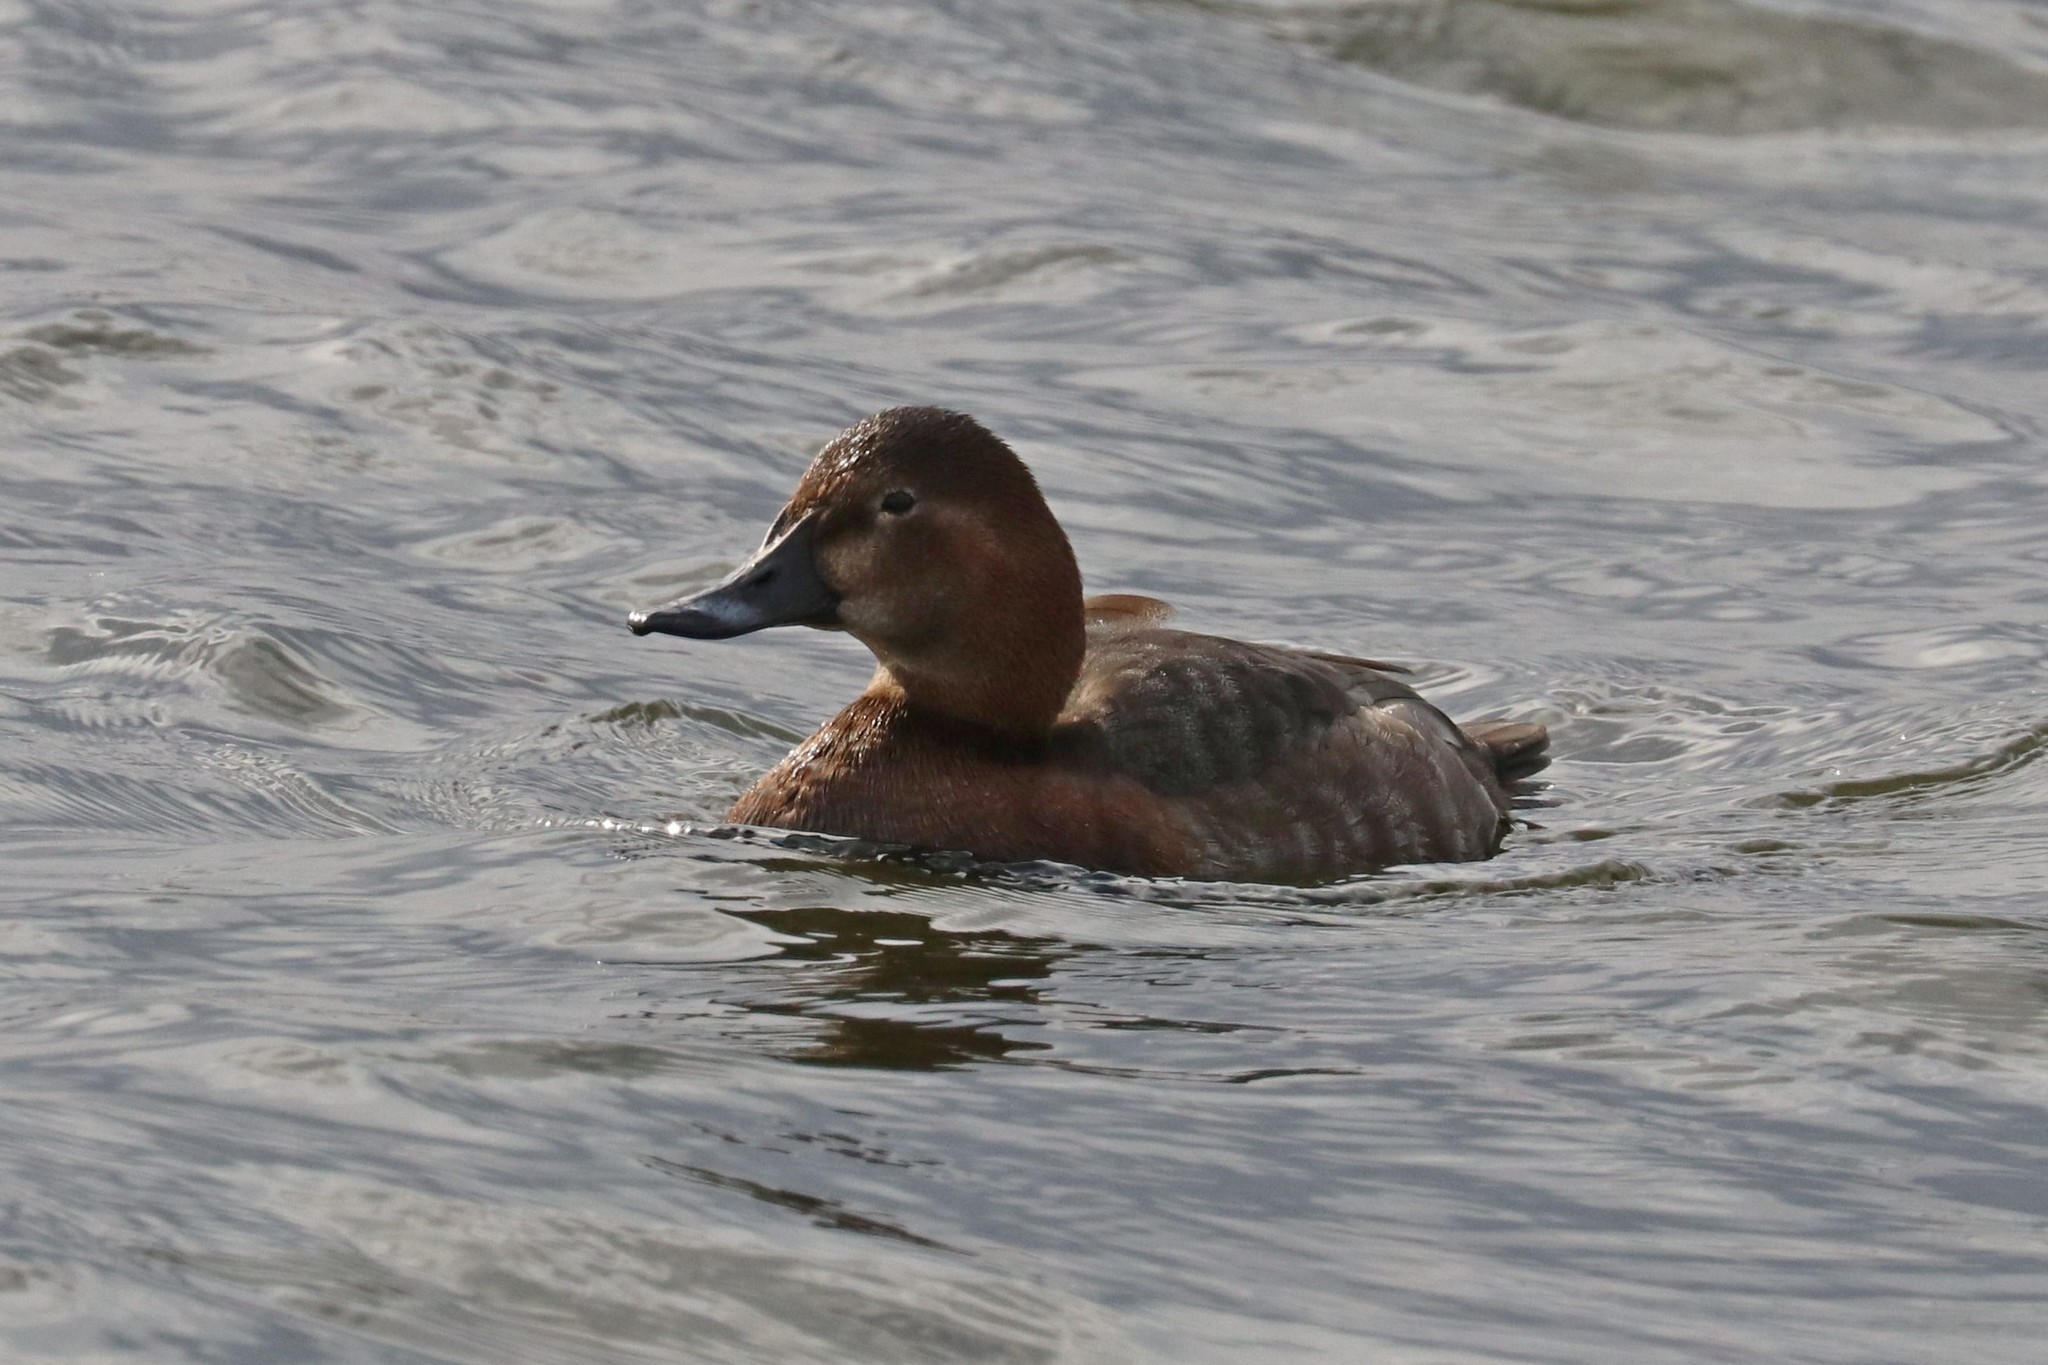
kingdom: Animalia
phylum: Chordata
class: Aves
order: Anseriformes
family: Anatidae
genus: Aythya
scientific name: Aythya ferina
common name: Common pochard
